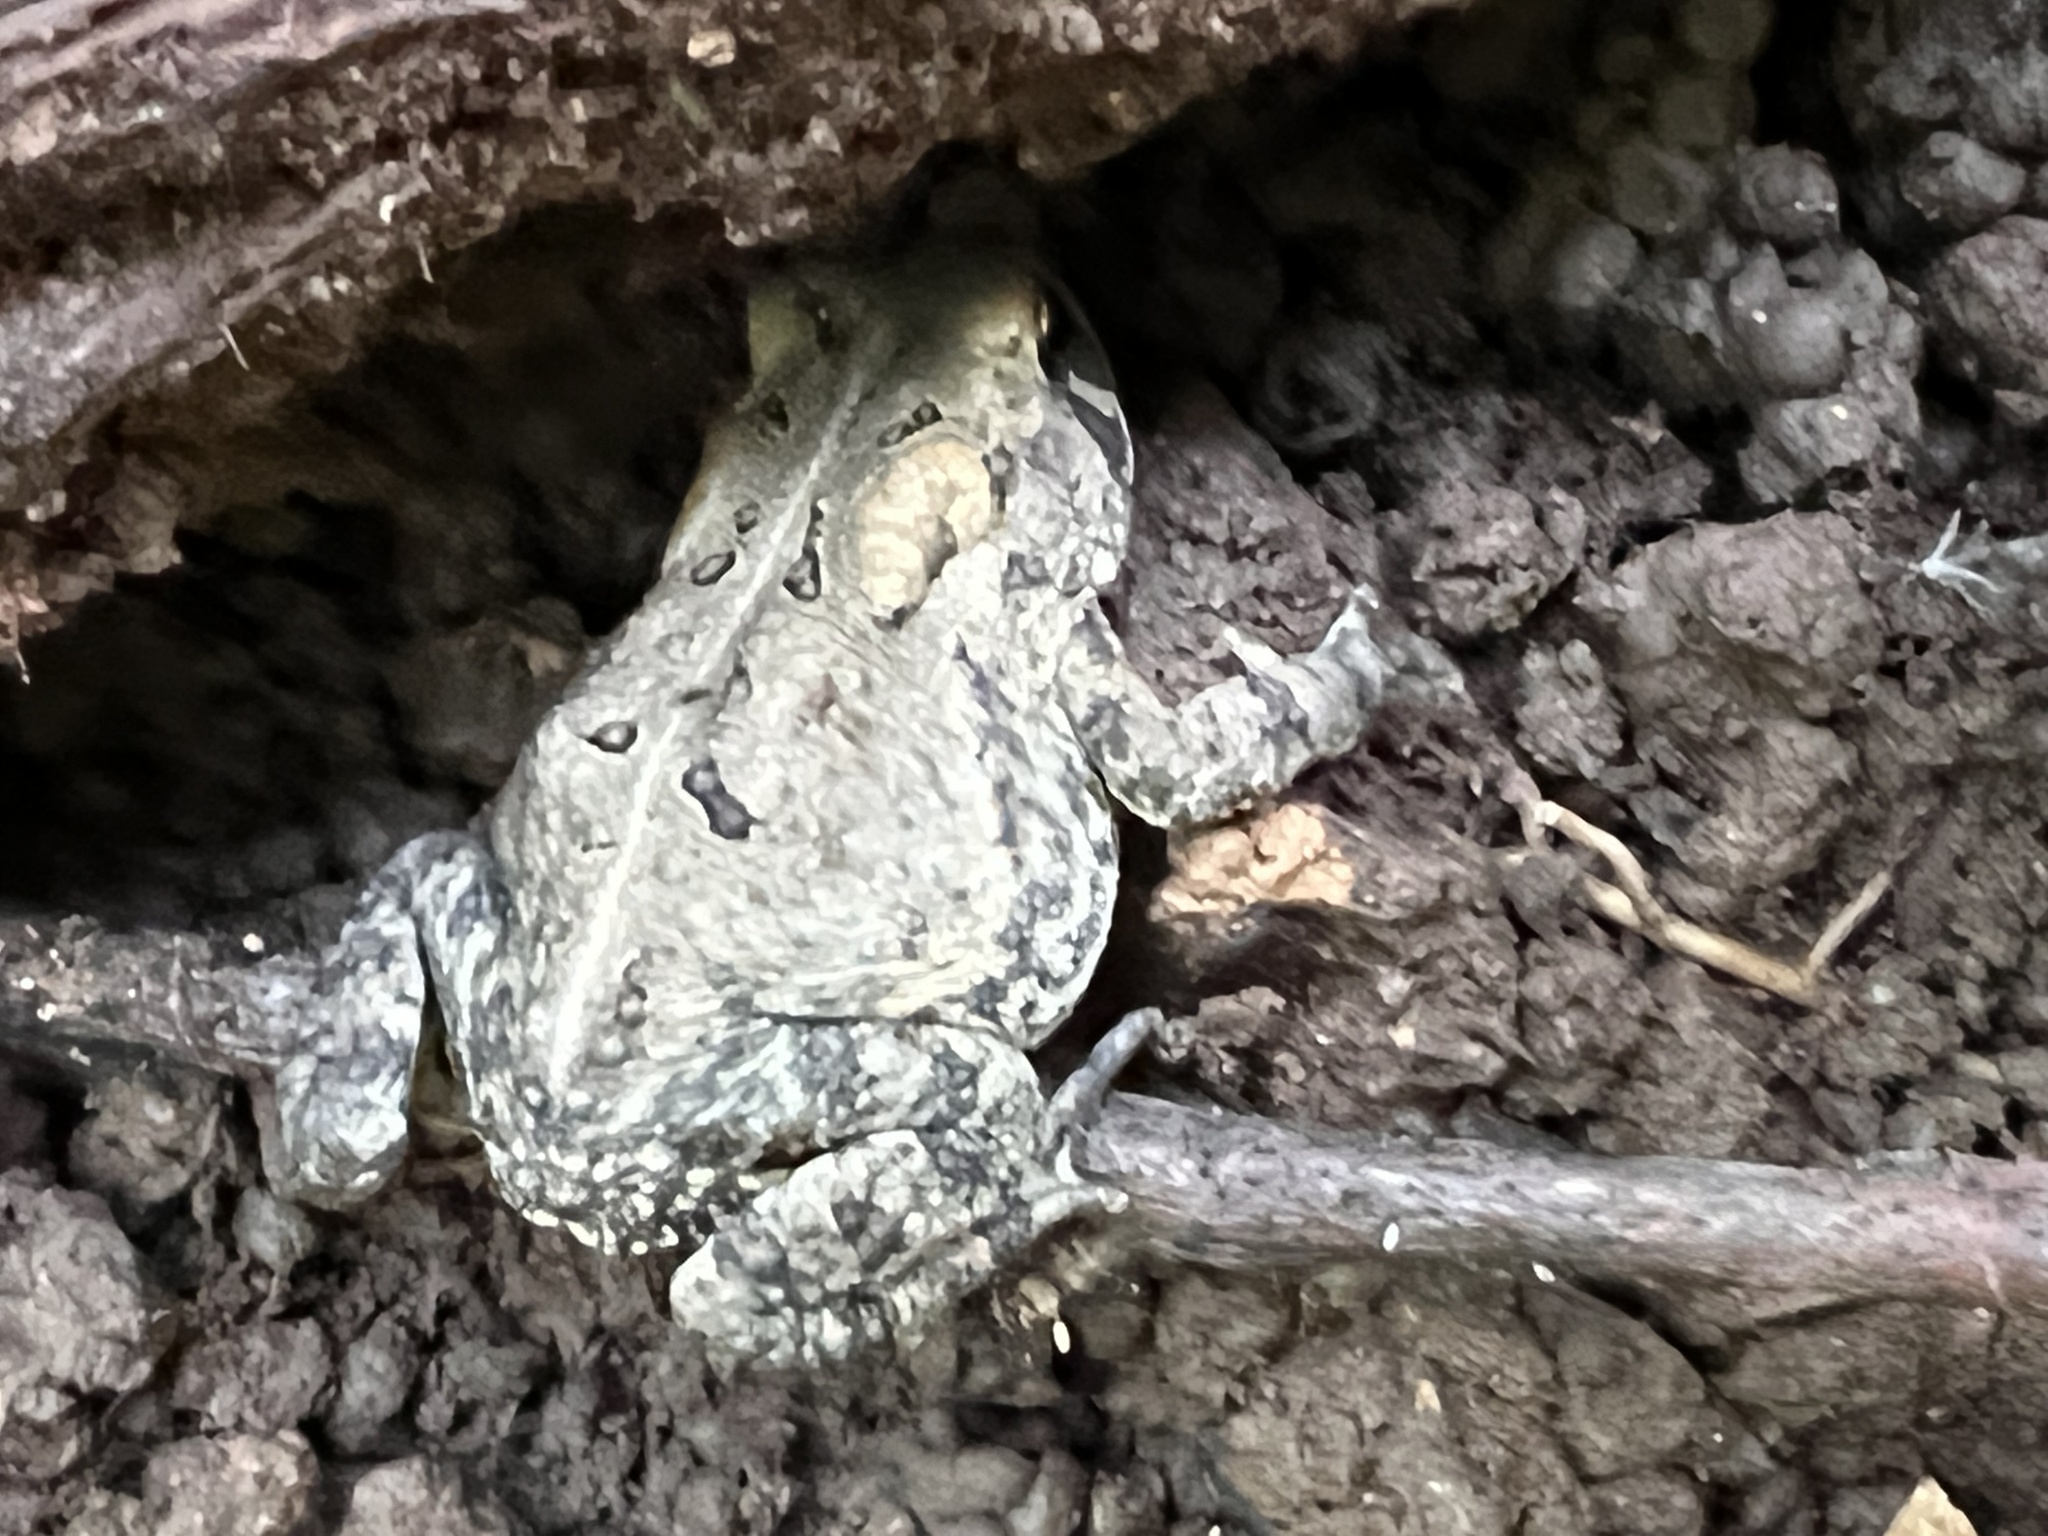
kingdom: Animalia
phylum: Chordata
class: Amphibia
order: Anura
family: Bufonidae
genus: Anaxyrus
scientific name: Anaxyrus americanus
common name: American toad
